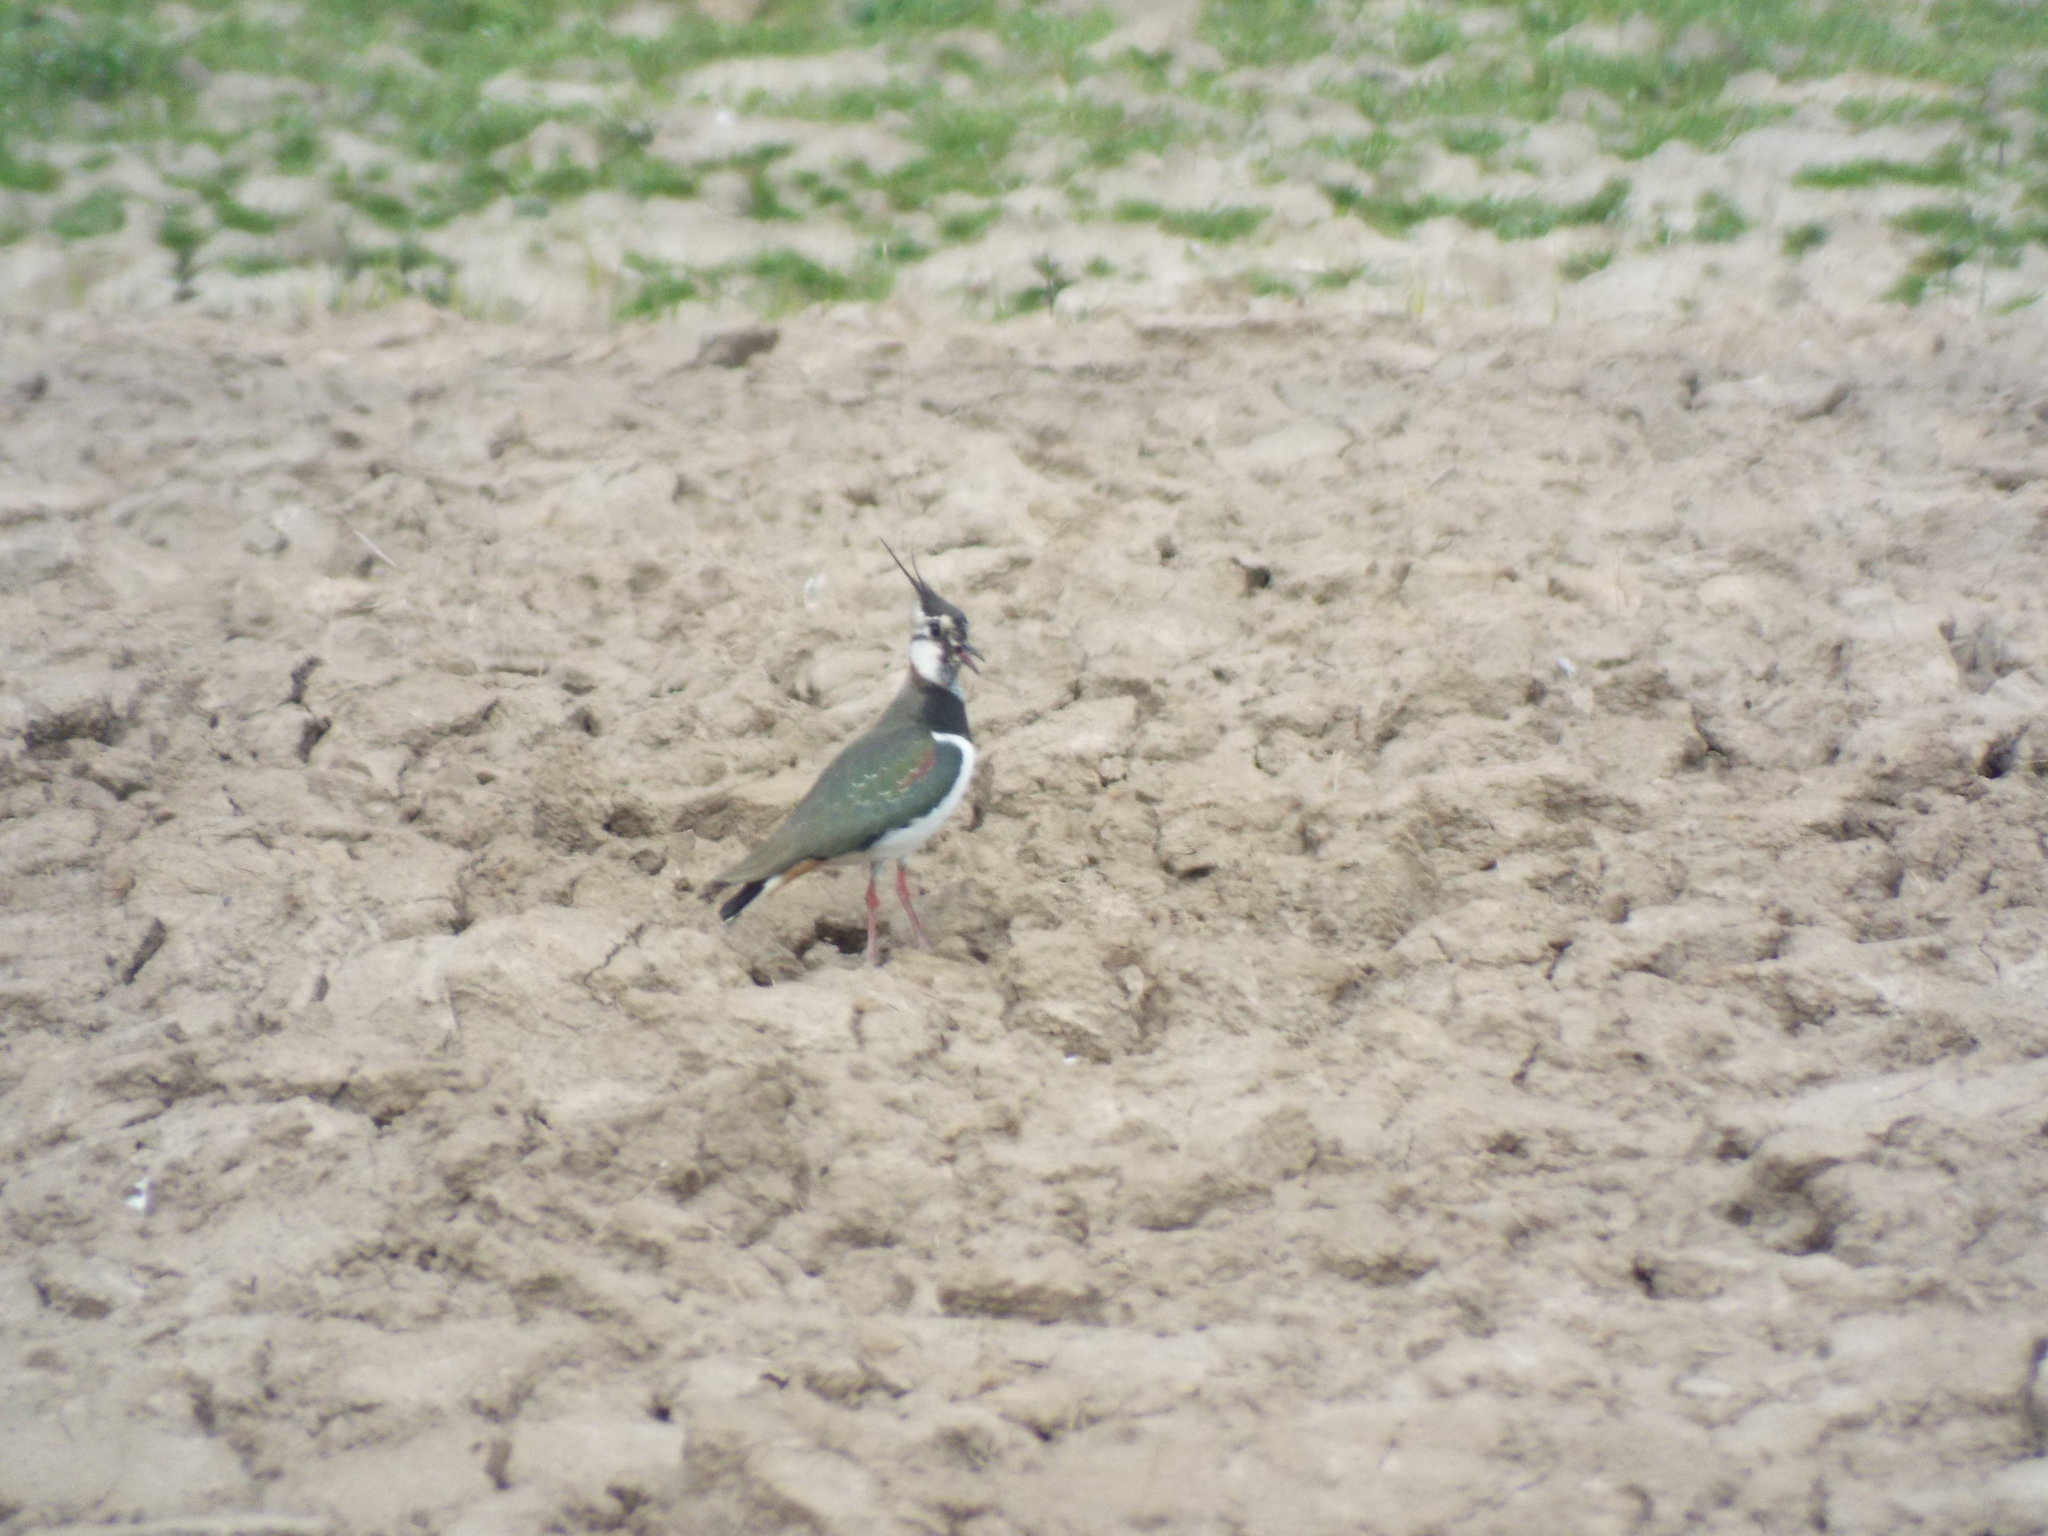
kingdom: Animalia
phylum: Chordata
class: Aves
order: Charadriiformes
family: Charadriidae
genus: Vanellus
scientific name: Vanellus vanellus
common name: Northern lapwing
